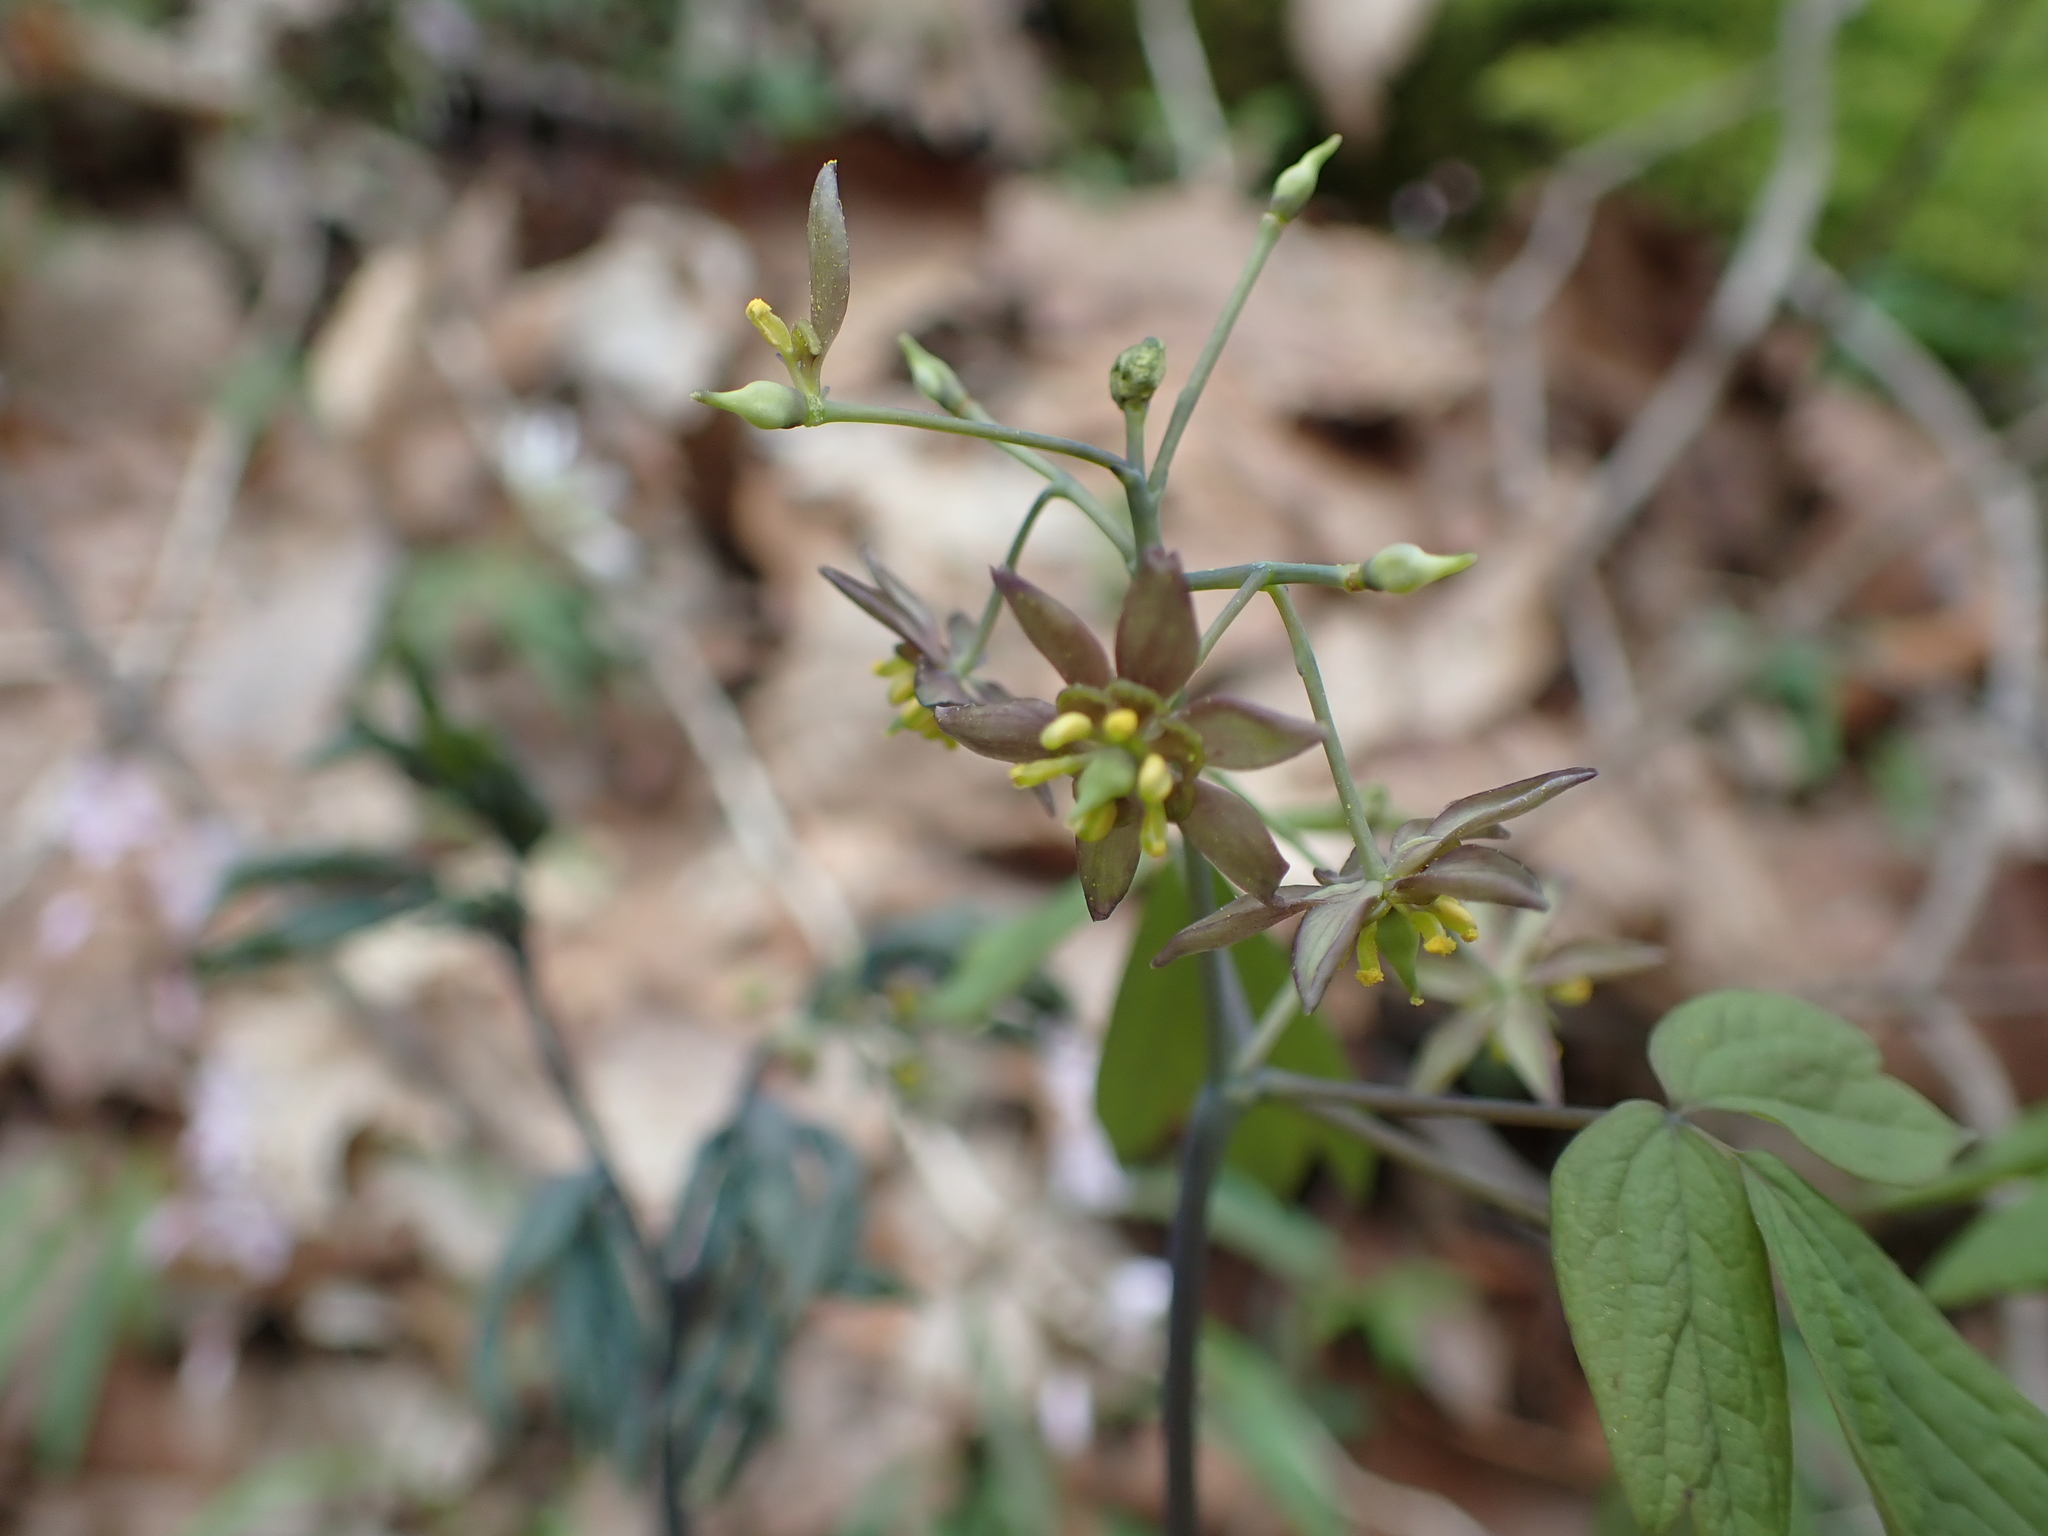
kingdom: Plantae
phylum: Tracheophyta
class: Magnoliopsida
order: Ranunculales
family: Berberidaceae
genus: Caulophyllum
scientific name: Caulophyllum giganteum
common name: Blue cohosh
